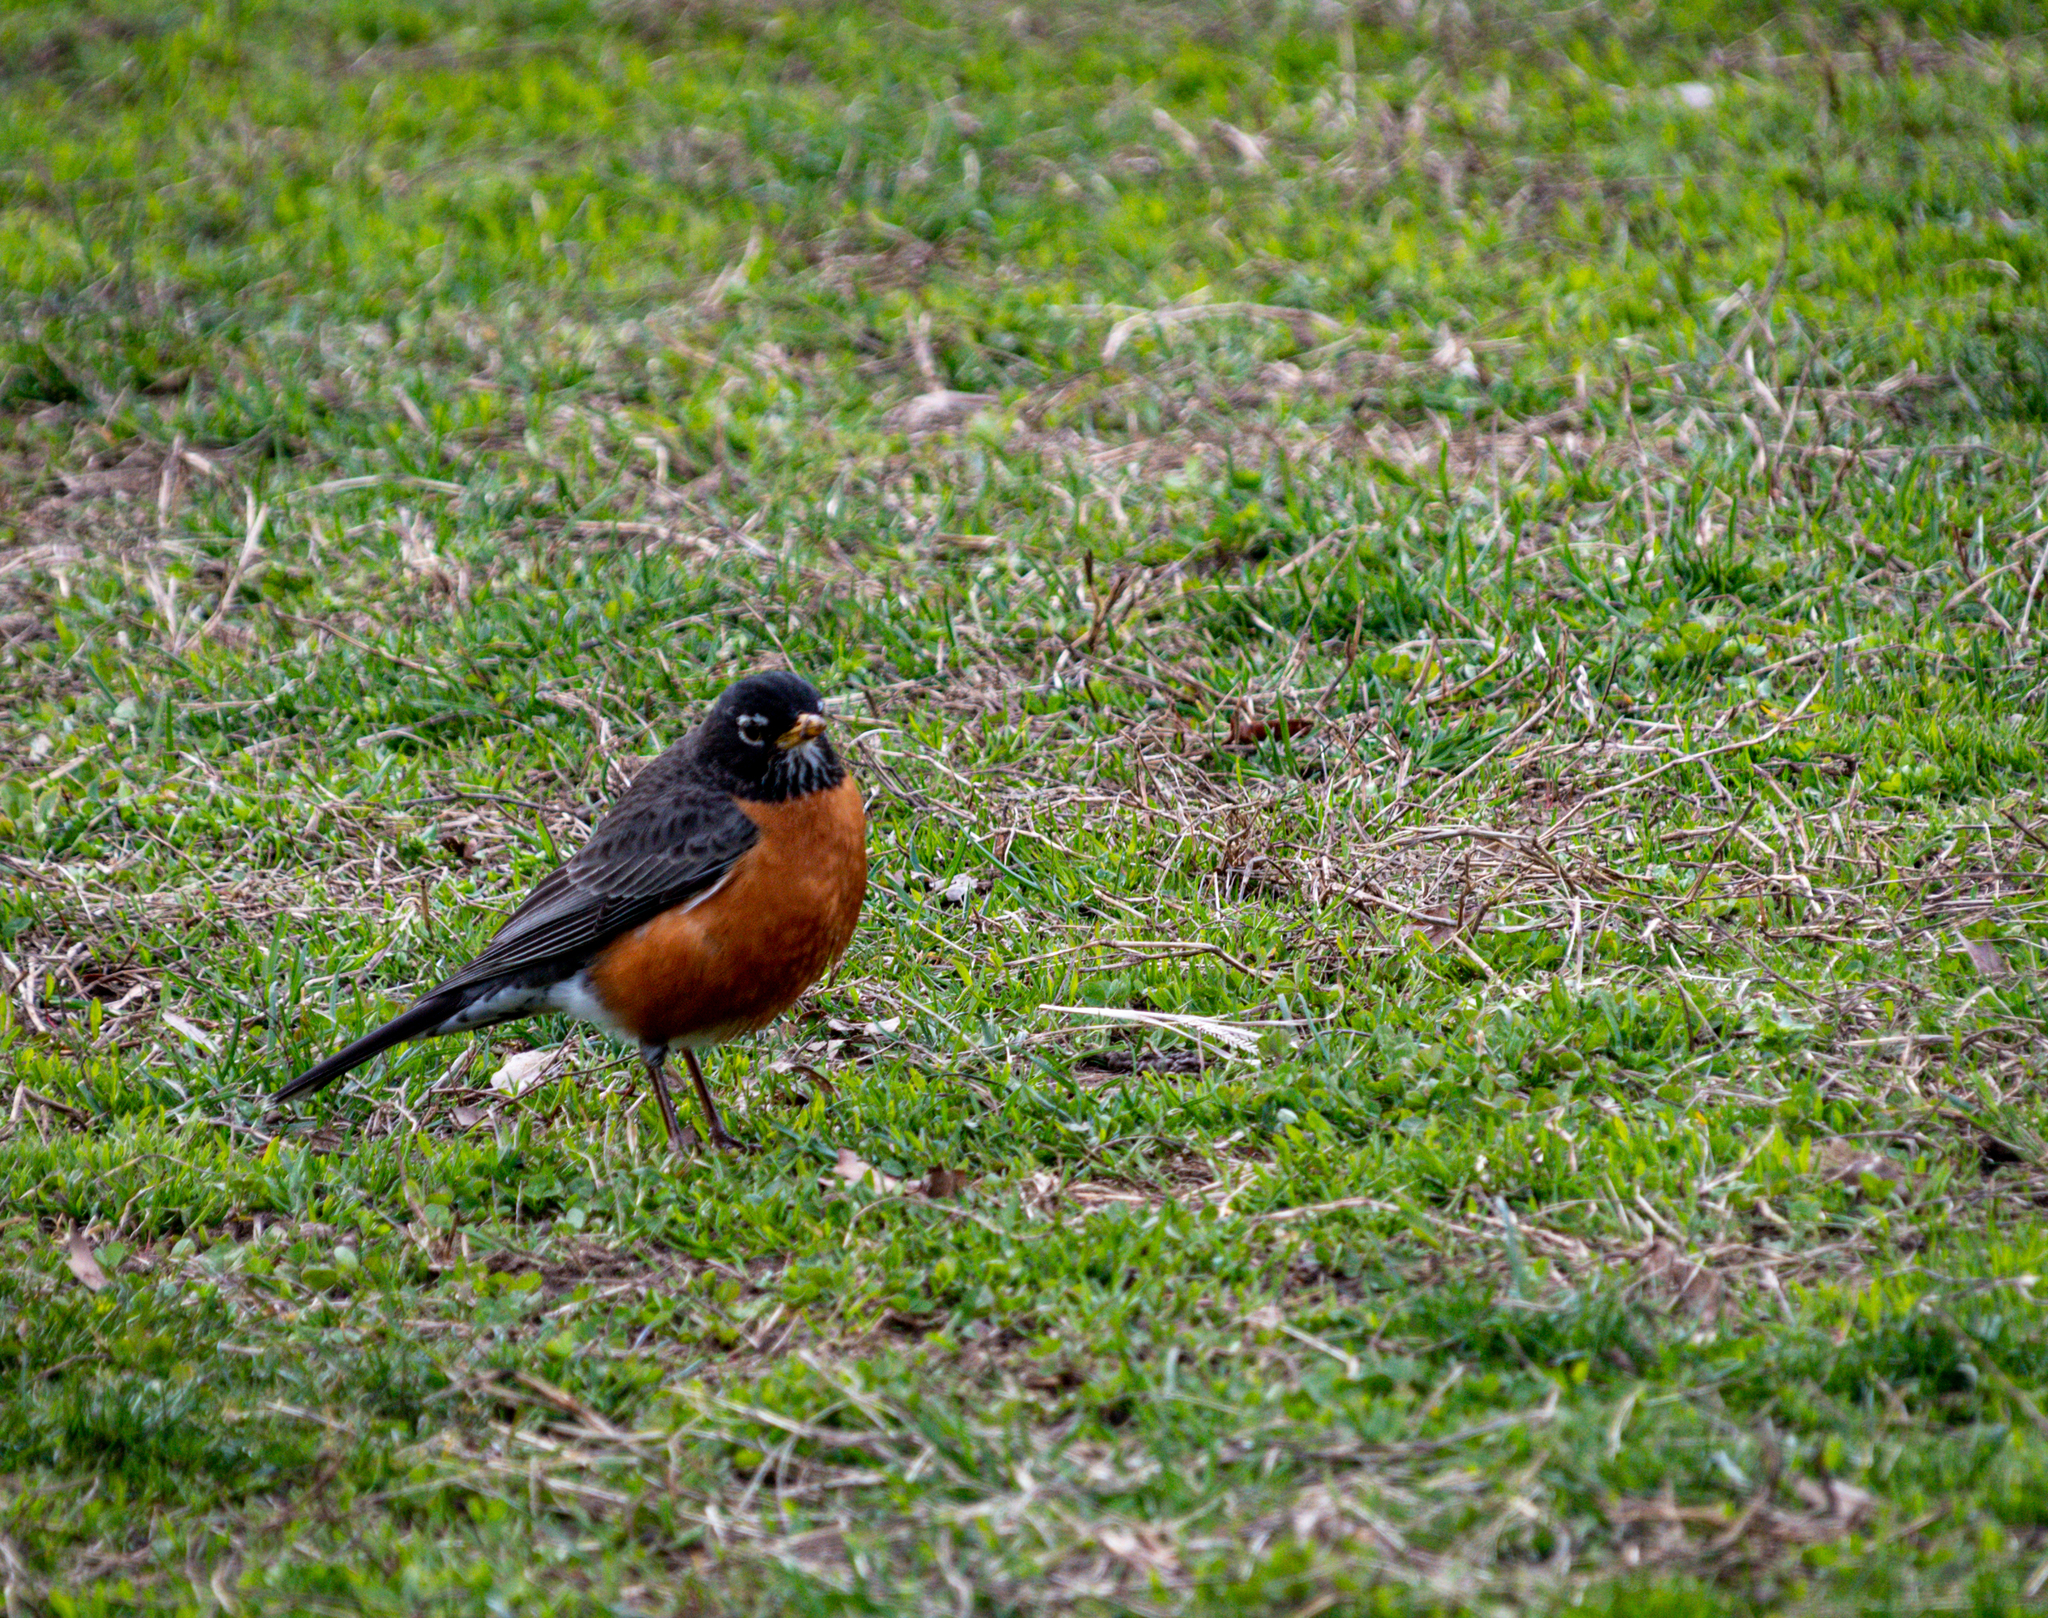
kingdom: Animalia
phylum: Chordata
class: Aves
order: Passeriformes
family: Turdidae
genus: Turdus
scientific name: Turdus migratorius
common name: American robin
